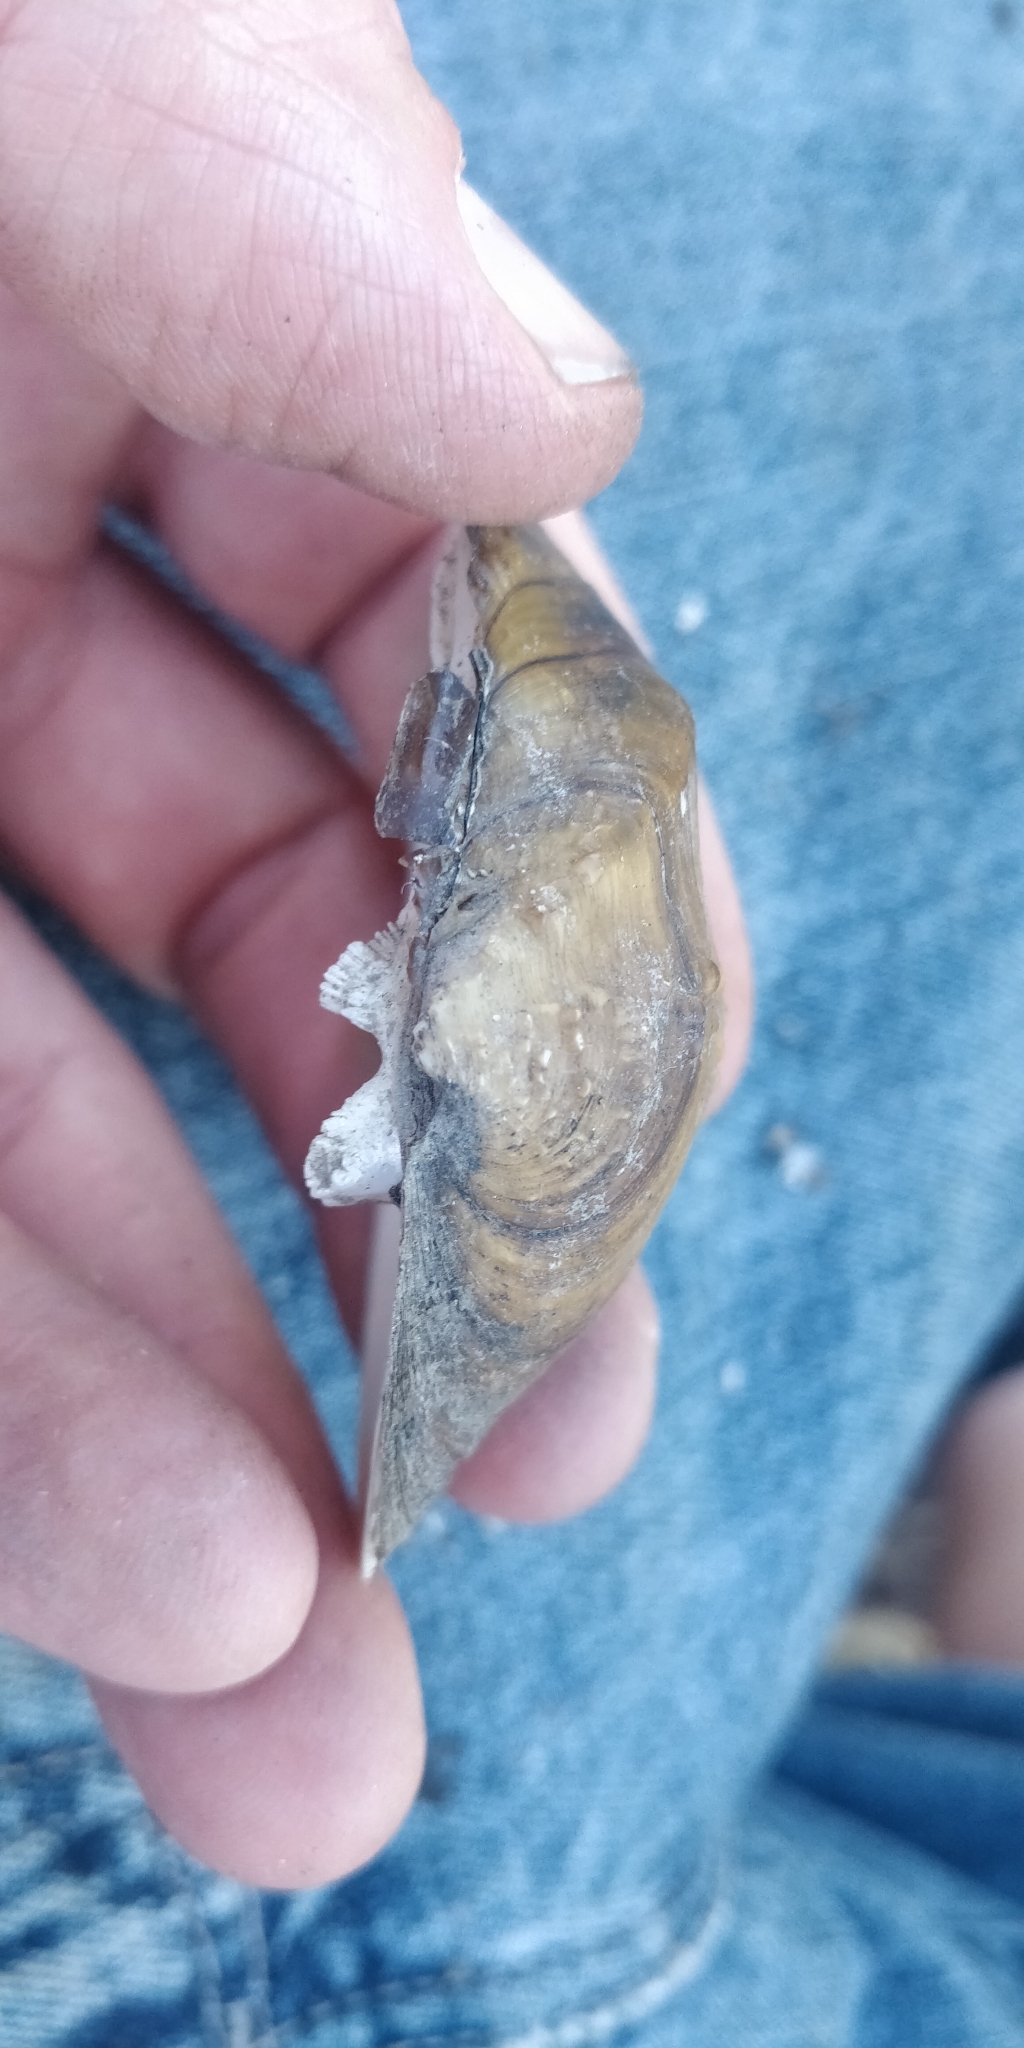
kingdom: Animalia
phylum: Mollusca
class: Bivalvia
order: Unionida
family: Unionidae
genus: Quadrula
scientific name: Quadrula quadrula
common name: Mapleleaf
